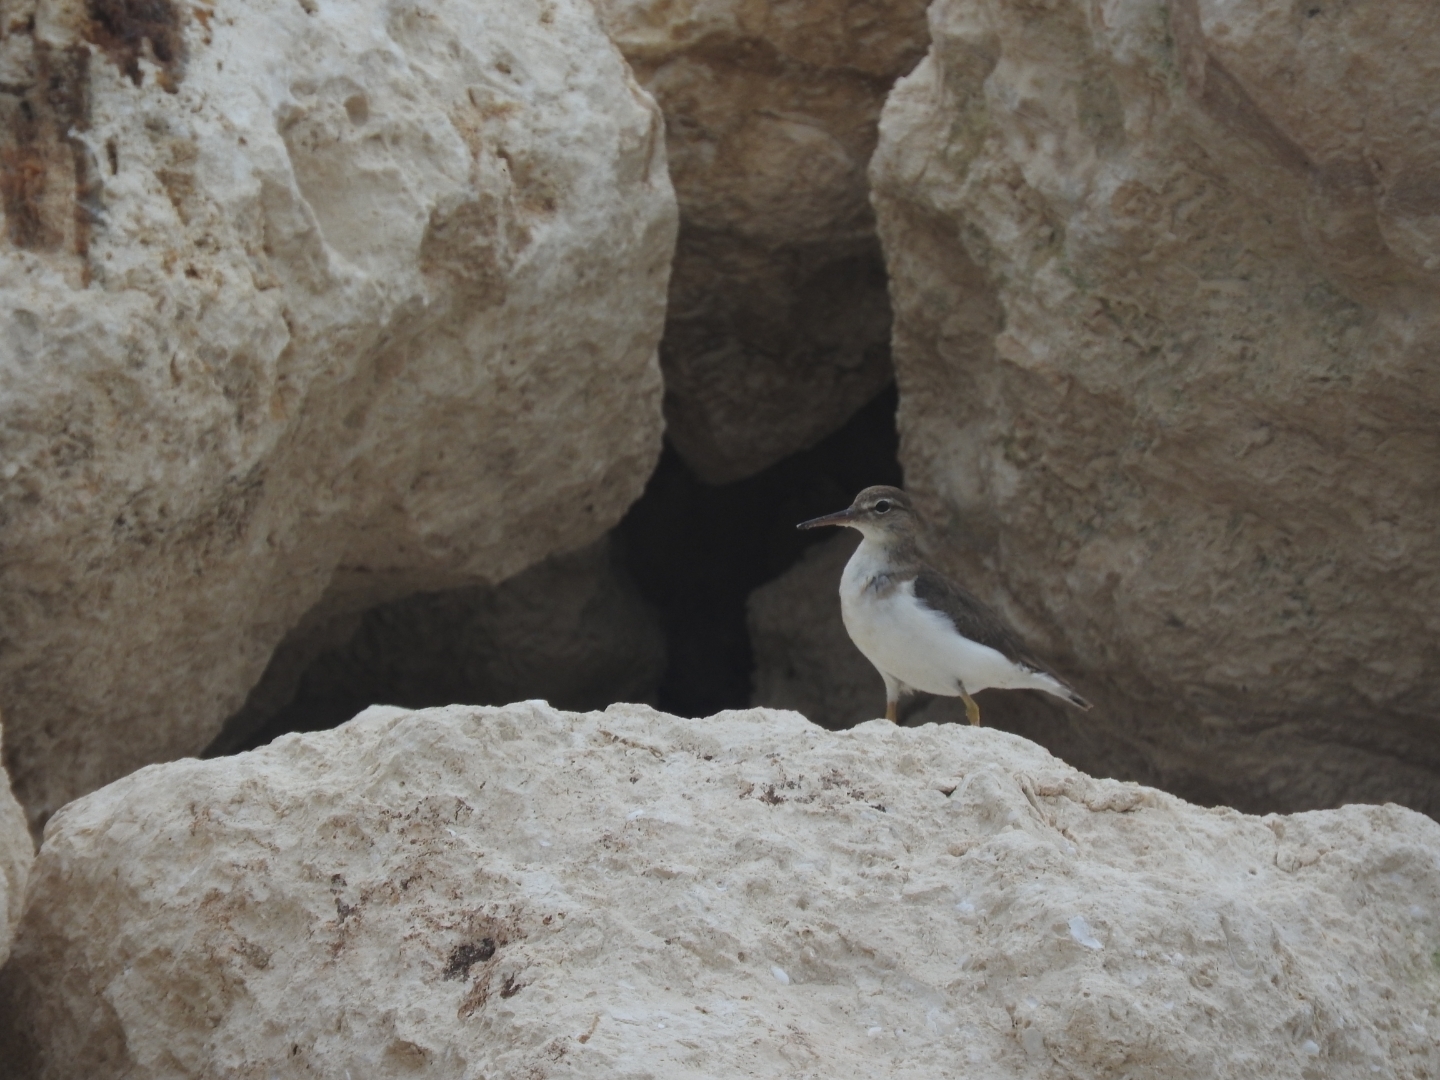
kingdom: Animalia
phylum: Chordata
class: Aves
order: Charadriiformes
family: Scolopacidae
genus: Actitis
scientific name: Actitis macularius
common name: Spotted sandpiper
